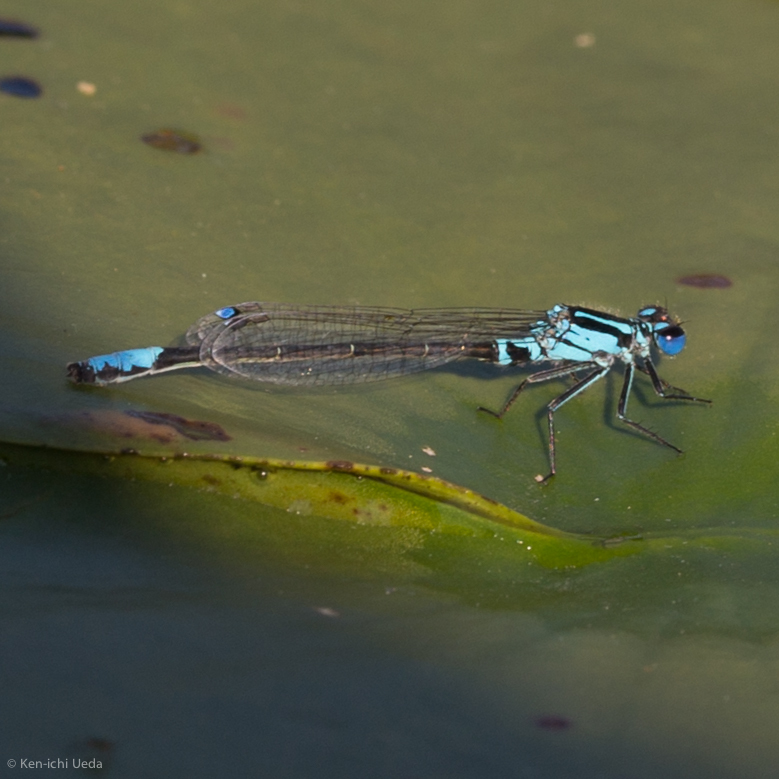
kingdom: Animalia
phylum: Arthropoda
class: Insecta
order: Odonata
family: Coenagrionidae
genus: Ischnura
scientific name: Ischnura kellicotti
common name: Lilypad forktail
